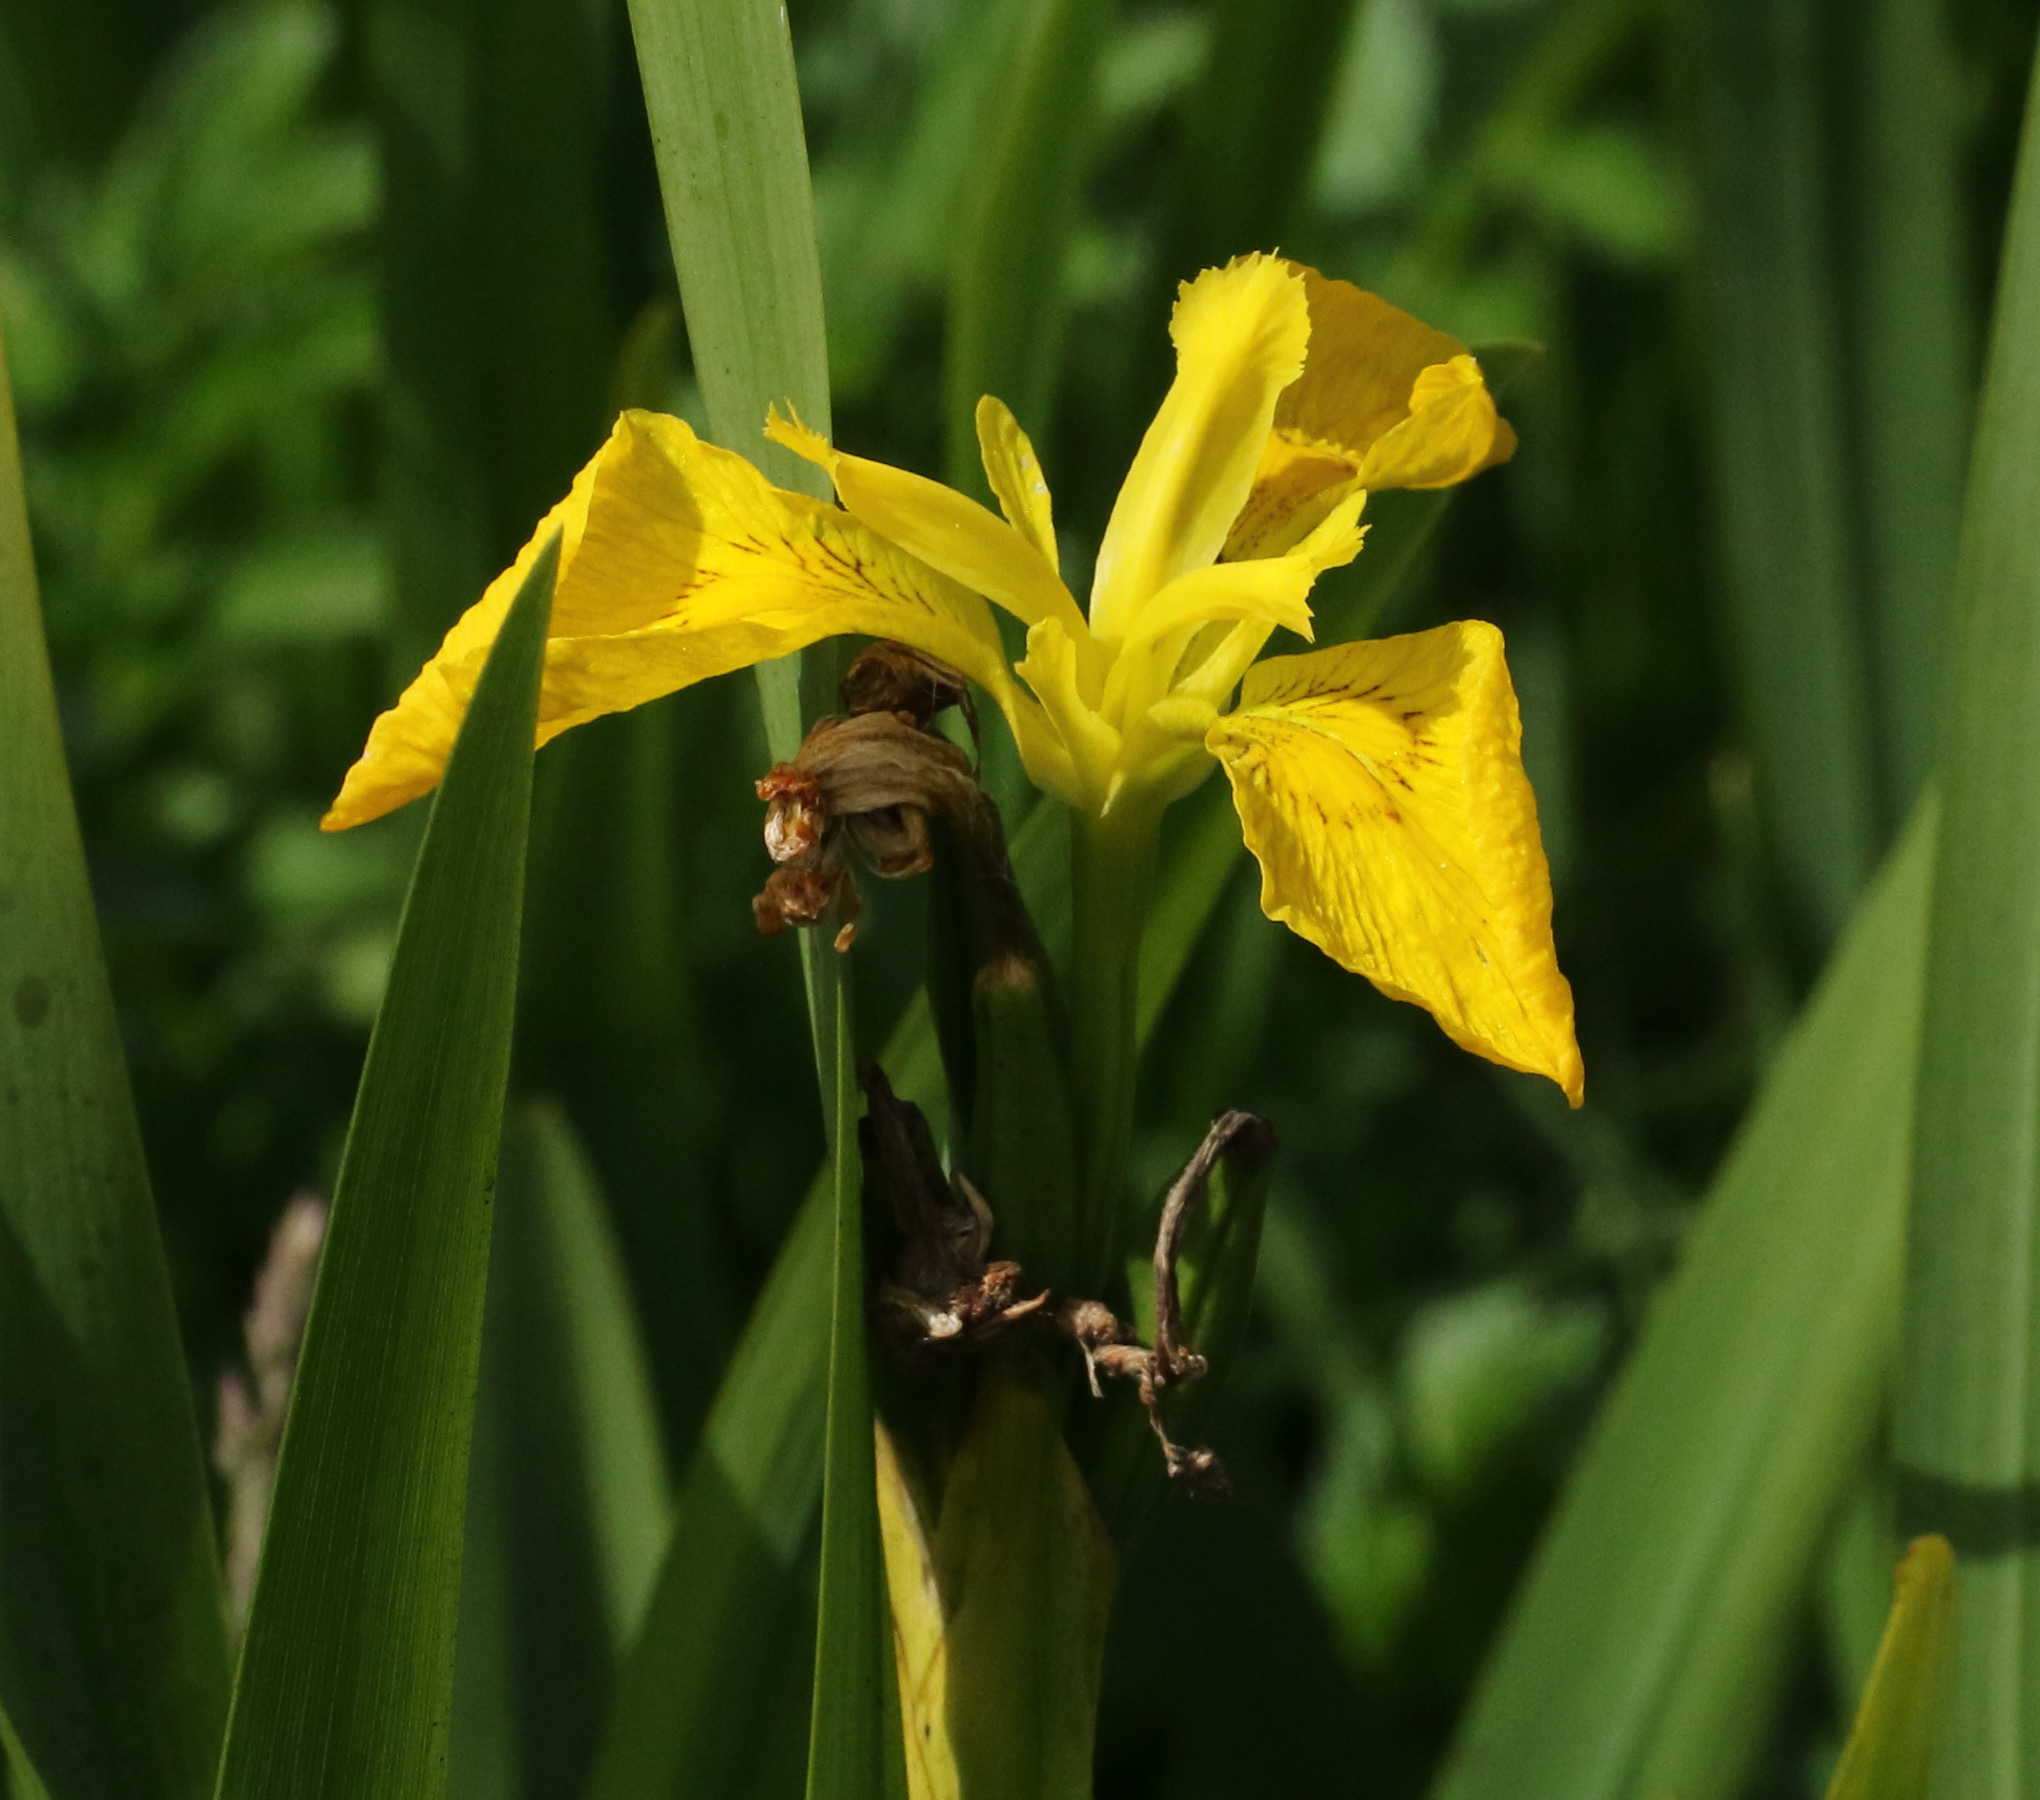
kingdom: Plantae
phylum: Tracheophyta
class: Liliopsida
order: Asparagales
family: Iridaceae
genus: Iris
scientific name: Iris pseudacorus
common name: Yellow flag
